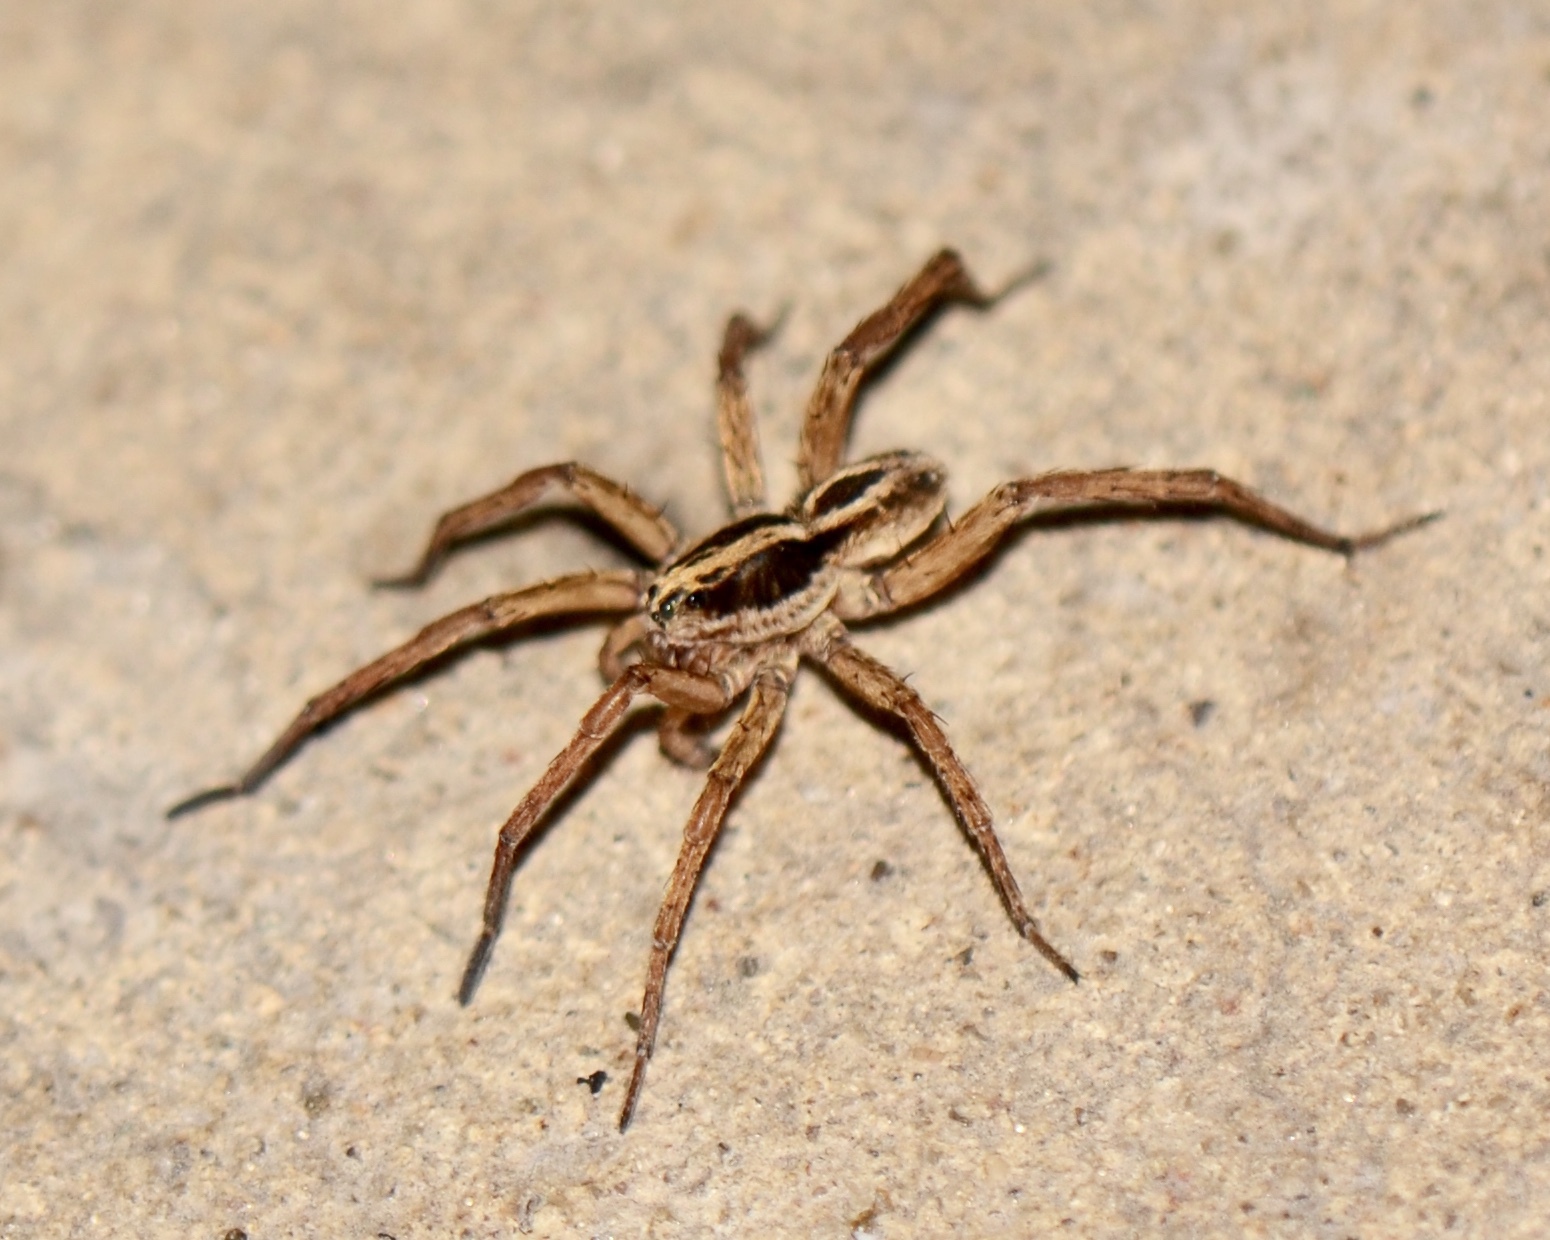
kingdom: Animalia
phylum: Arthropoda
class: Arachnida
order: Araneae
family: Lycosidae
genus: Tigrosa
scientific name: Tigrosa annexa
